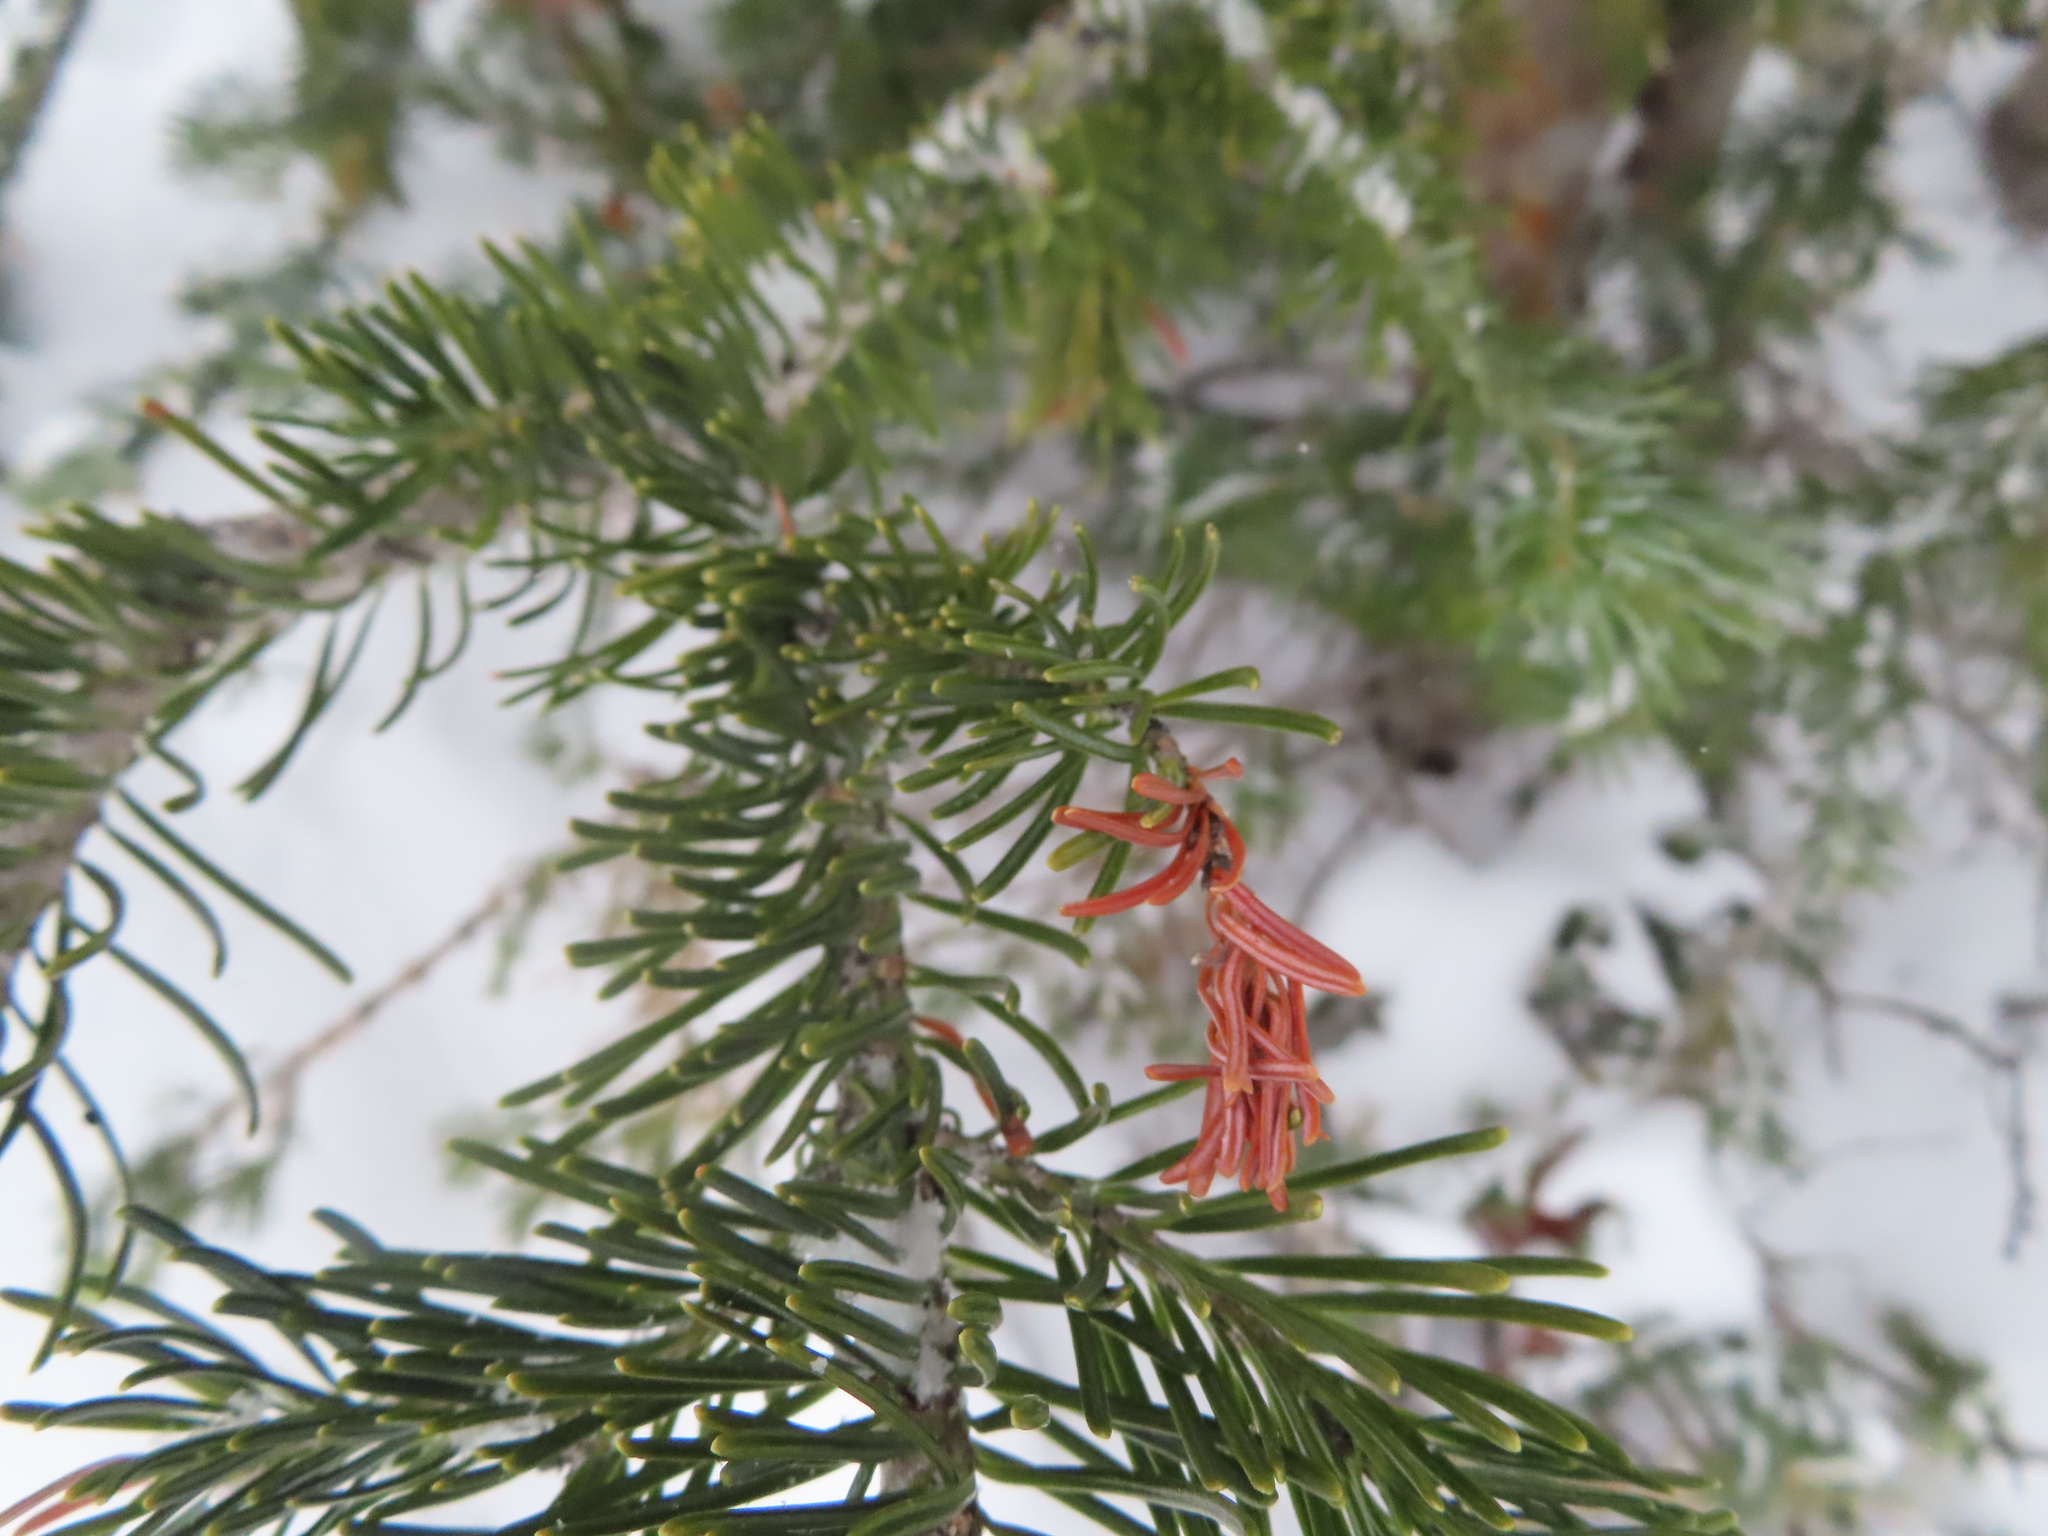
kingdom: Plantae
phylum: Tracheophyta
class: Pinopsida
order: Pinales
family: Pinaceae
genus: Abies
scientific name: Abies lasiocarpa
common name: Subalpine fir
